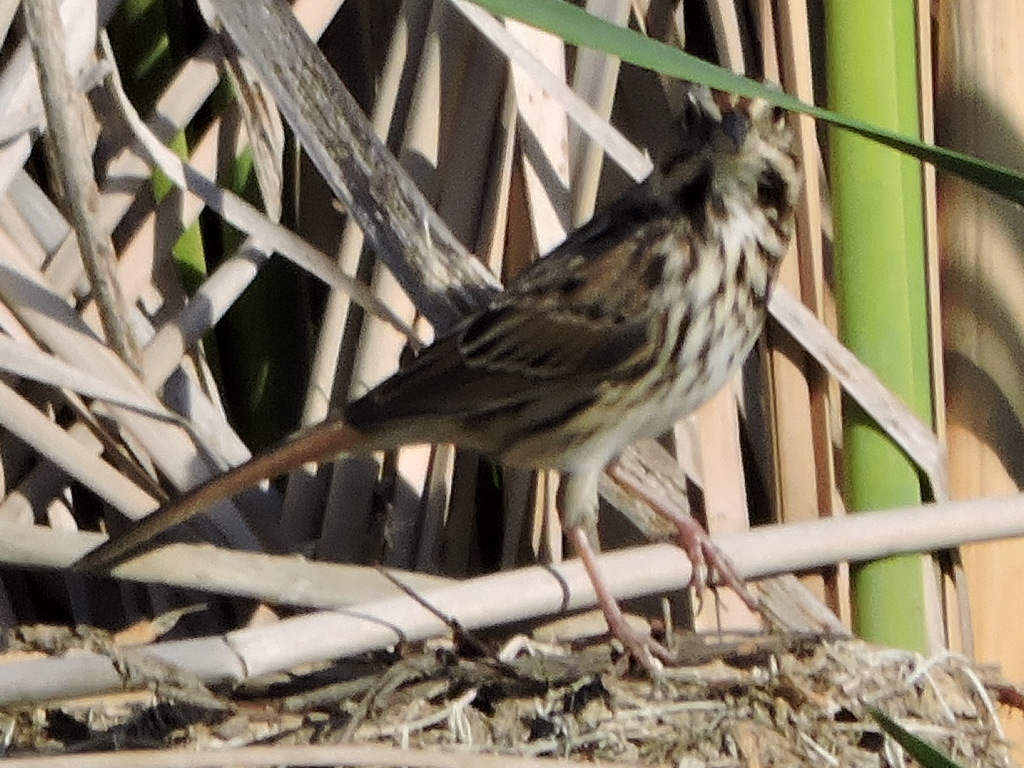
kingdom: Animalia
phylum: Chordata
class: Aves
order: Passeriformes
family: Passerellidae
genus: Melospiza
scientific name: Melospiza melodia
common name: Song sparrow
